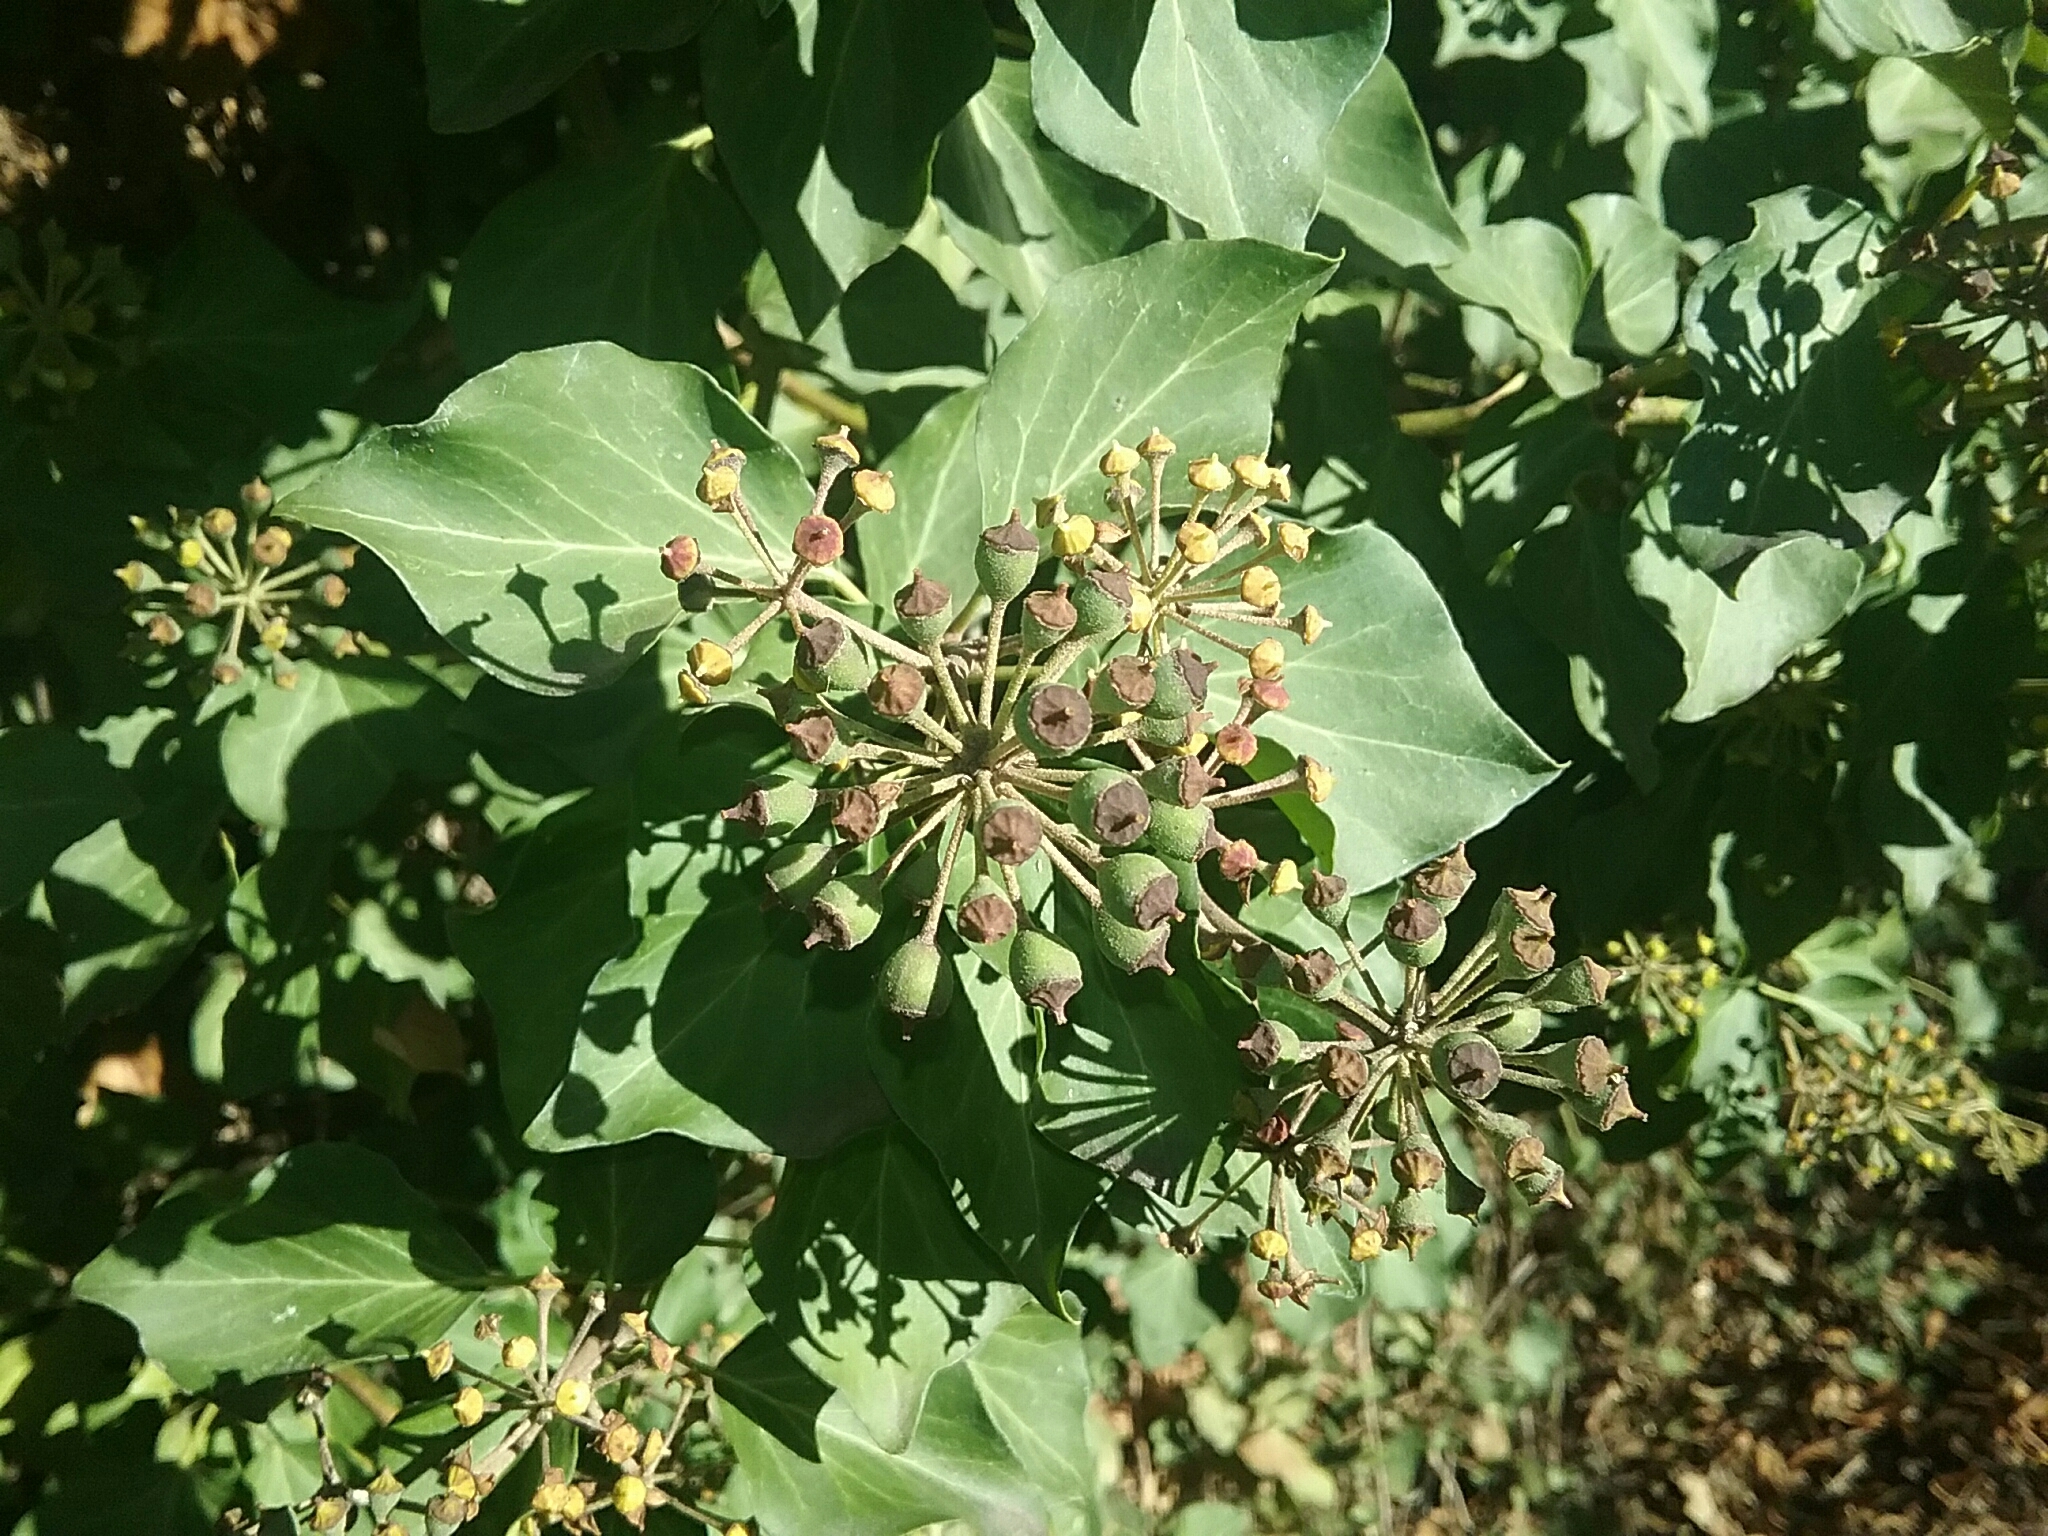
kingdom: Plantae
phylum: Tracheophyta
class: Magnoliopsida
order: Apiales
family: Araliaceae
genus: Hedera
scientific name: Hedera helix
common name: Ivy
